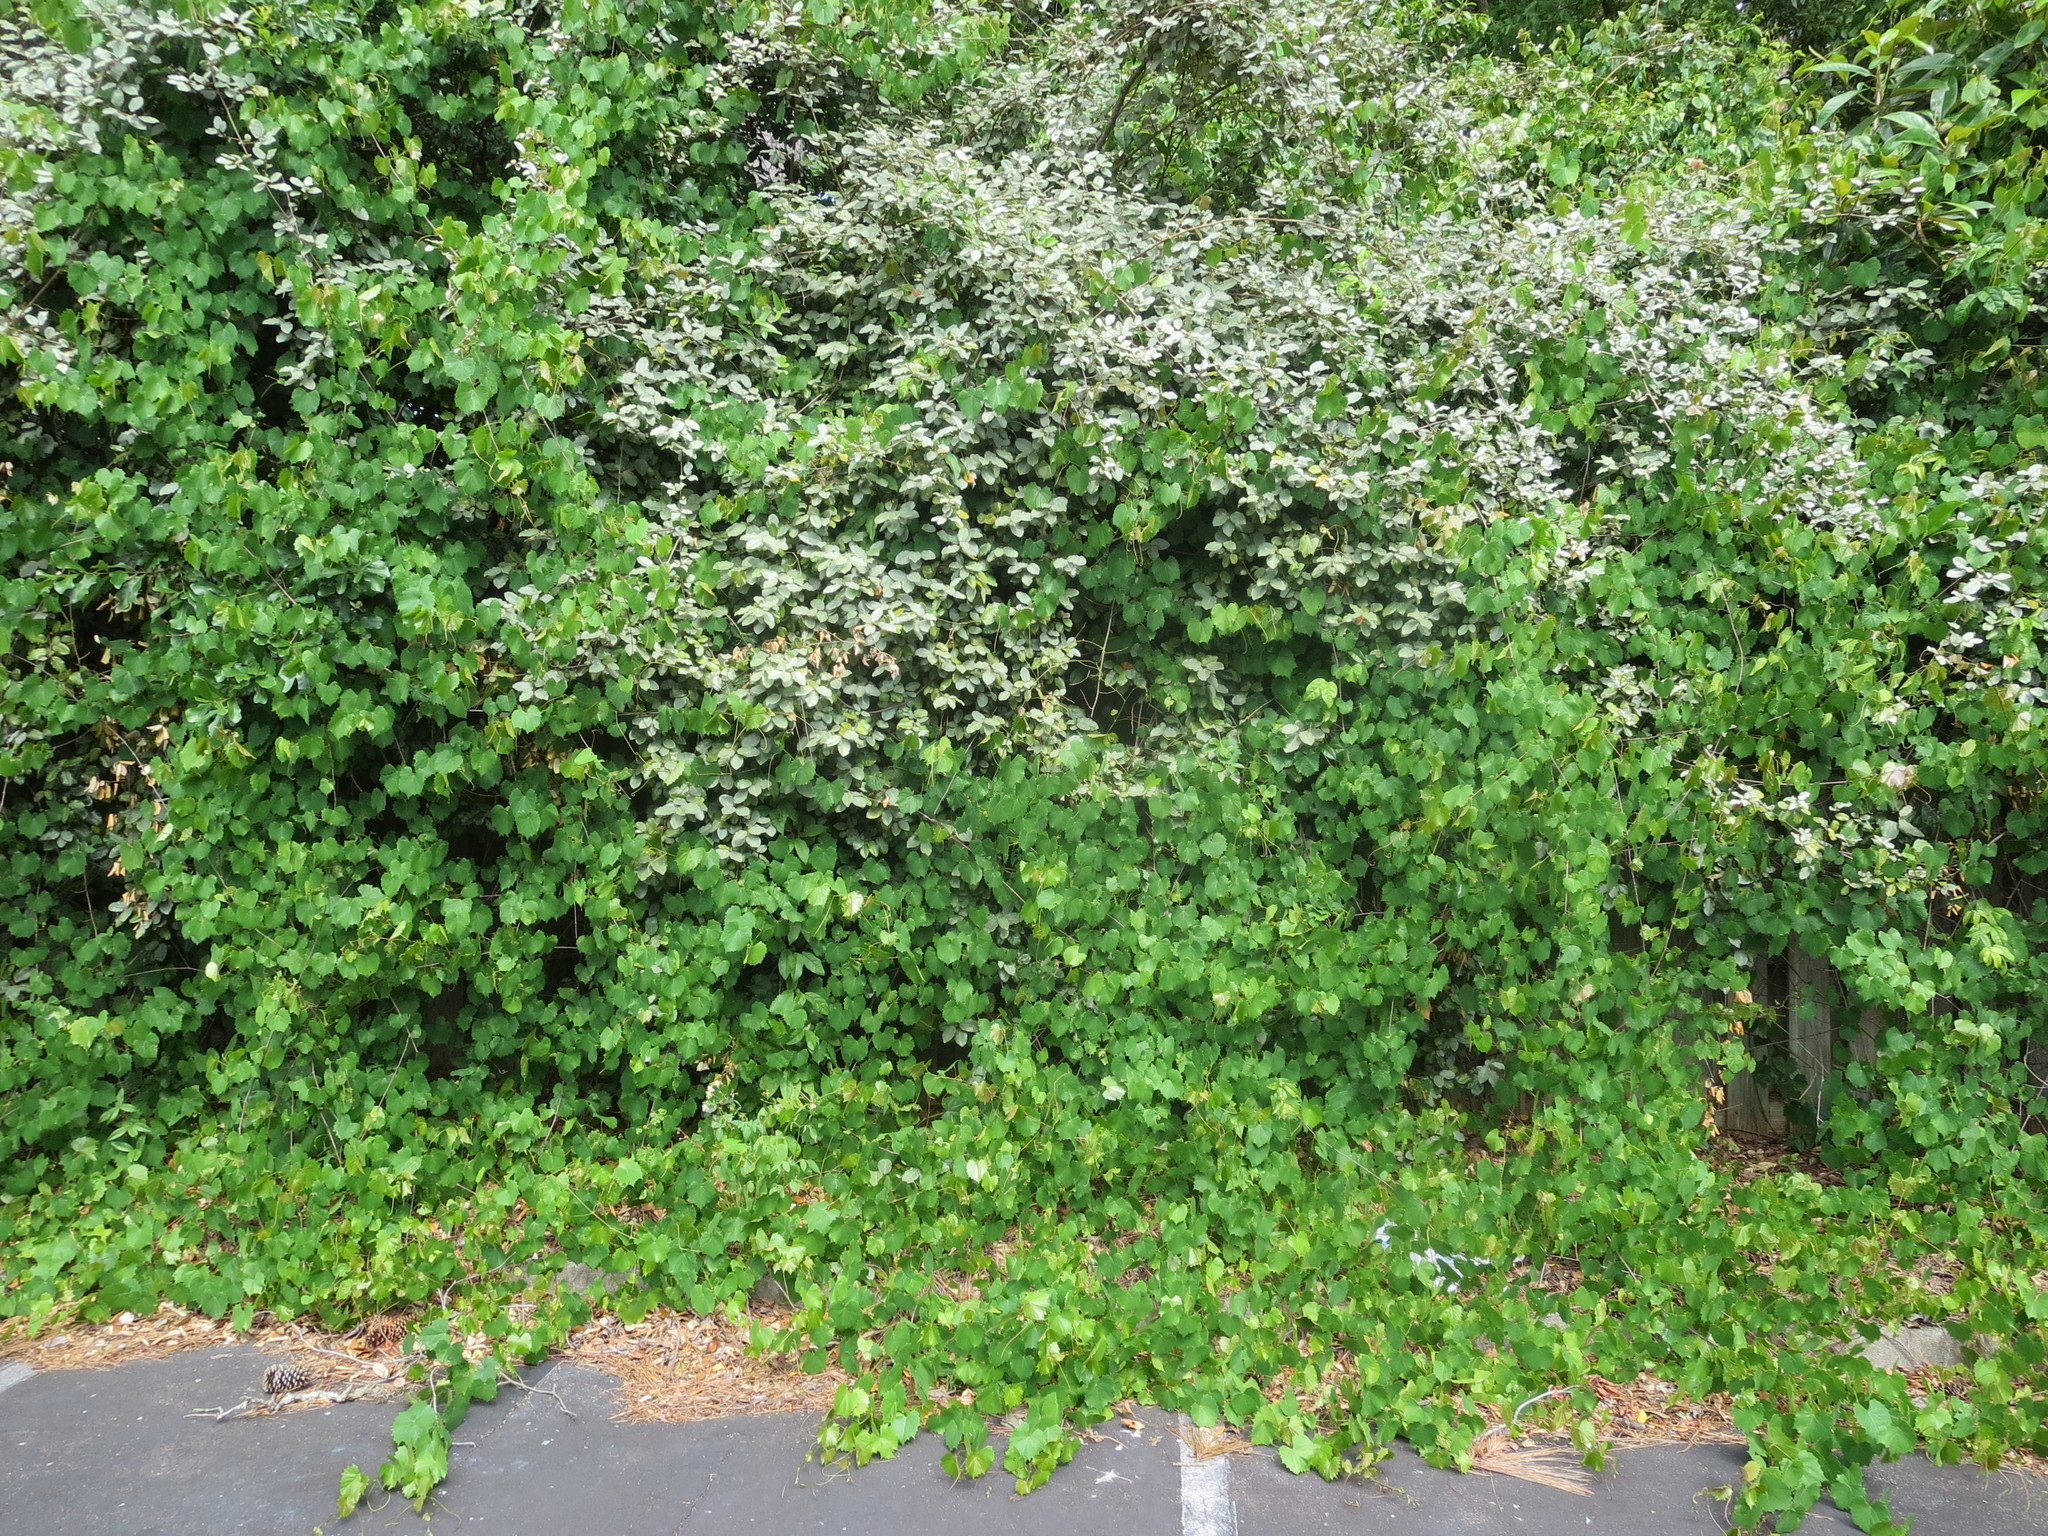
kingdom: Plantae
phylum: Tracheophyta
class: Magnoliopsida
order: Rosales
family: Elaeagnaceae
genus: Elaeagnus
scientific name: Elaeagnus pungens
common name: Spiny oleaster
